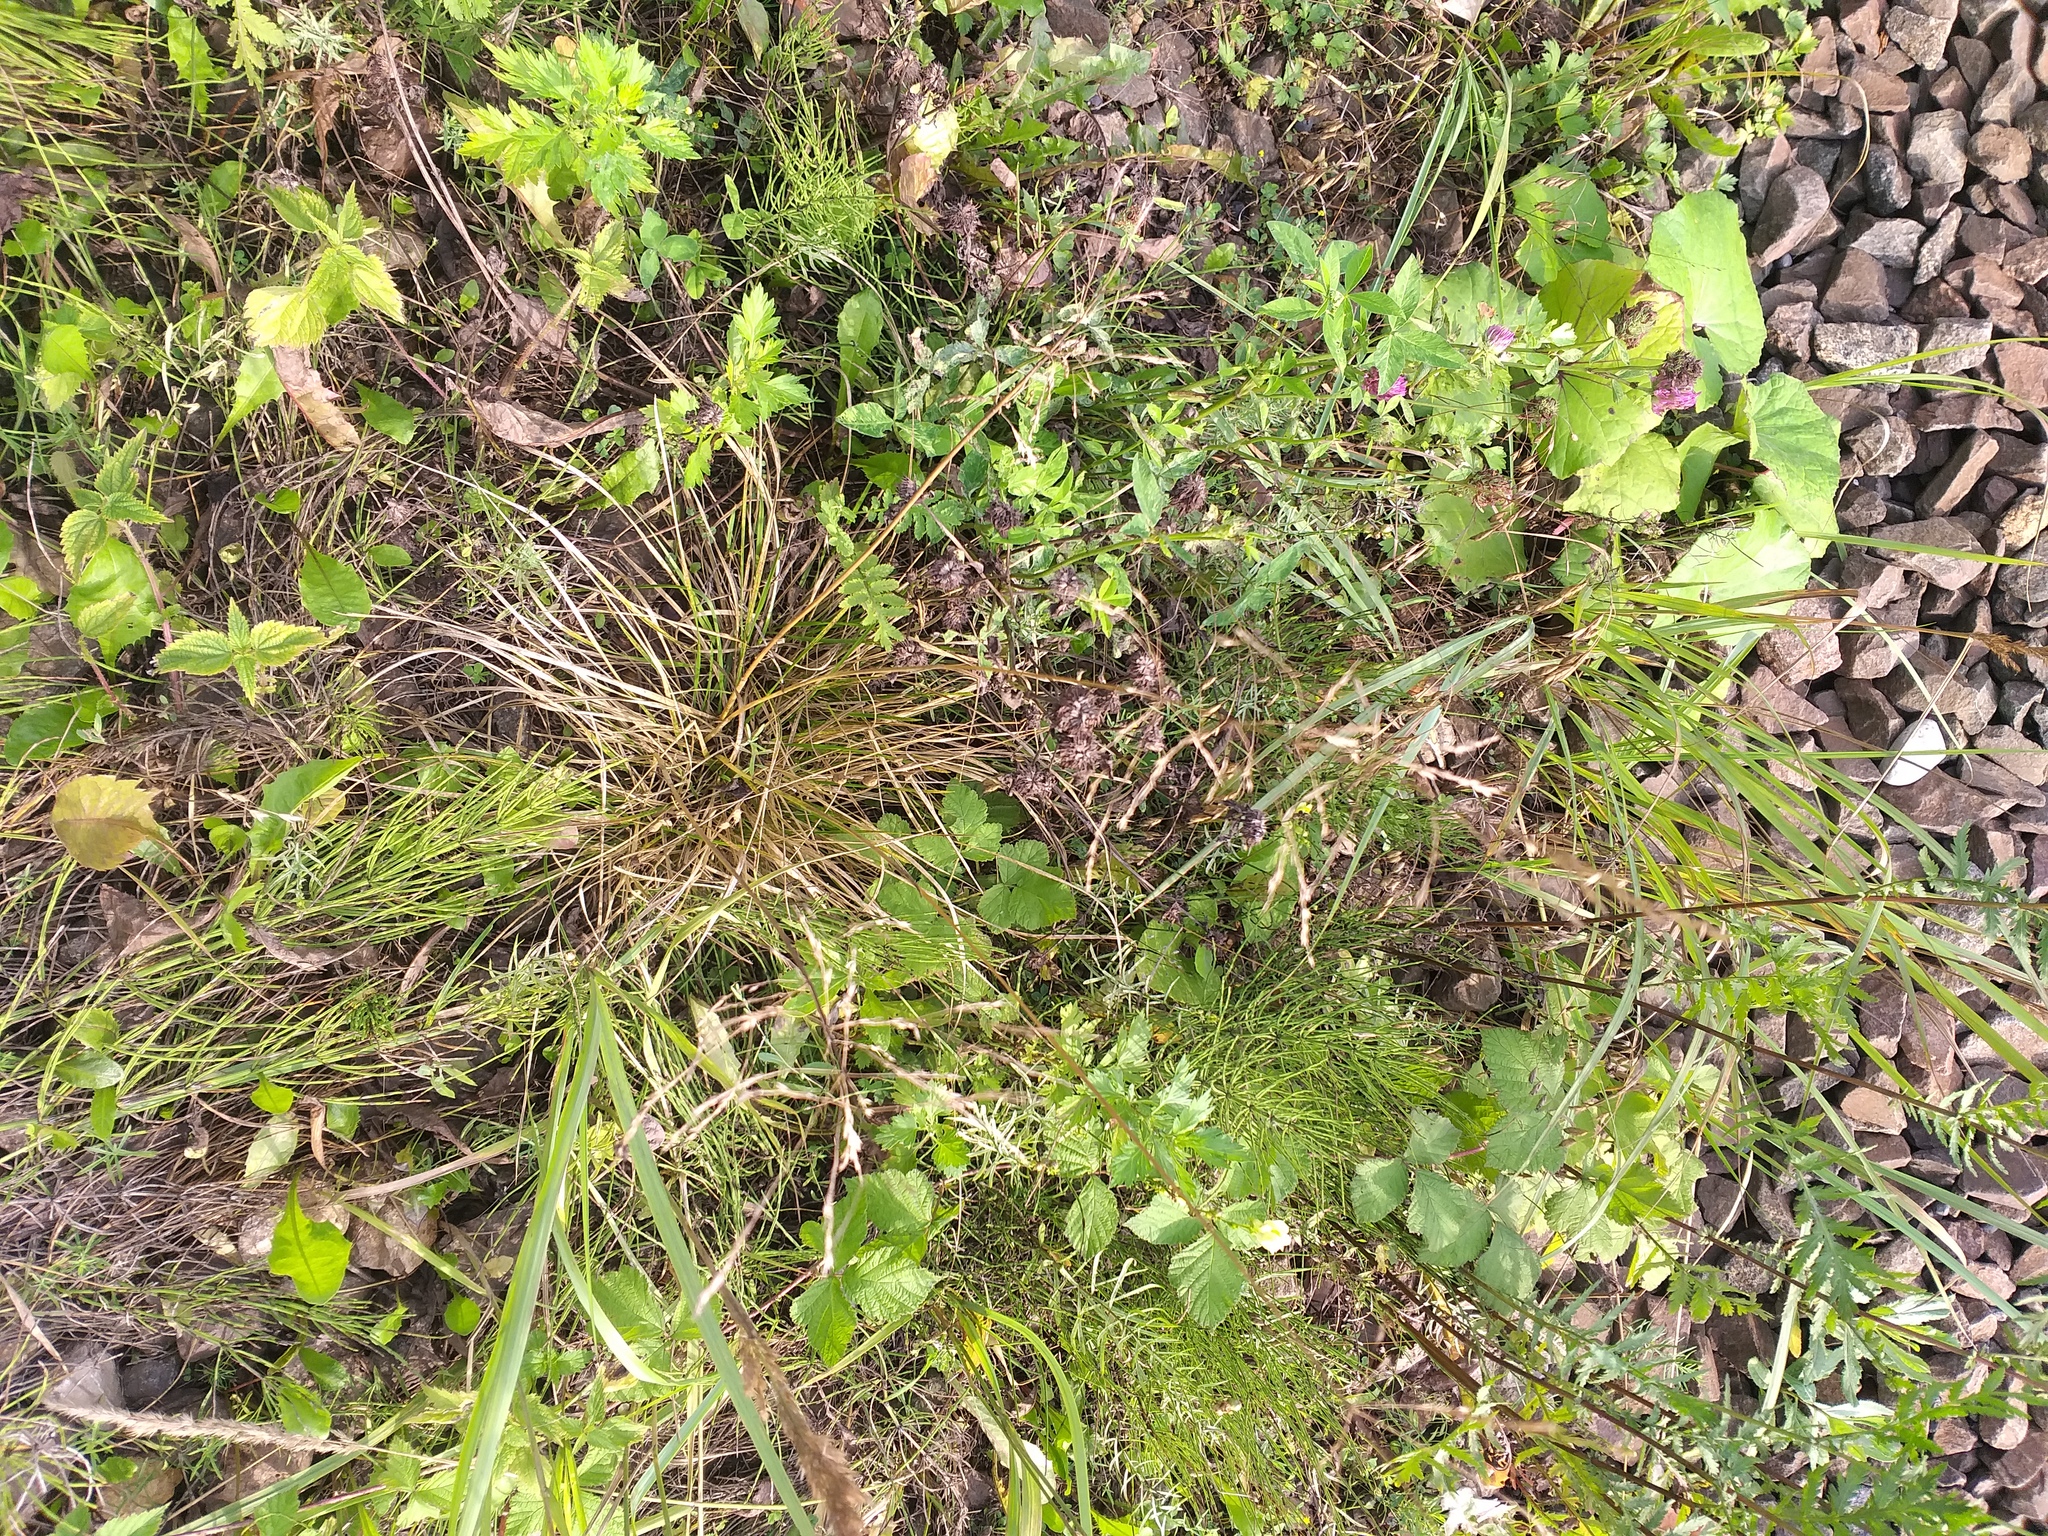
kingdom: Plantae
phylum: Tracheophyta
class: Liliopsida
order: Poales
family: Poaceae
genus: Deschampsia
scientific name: Deschampsia cespitosa
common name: Tufted hair-grass
